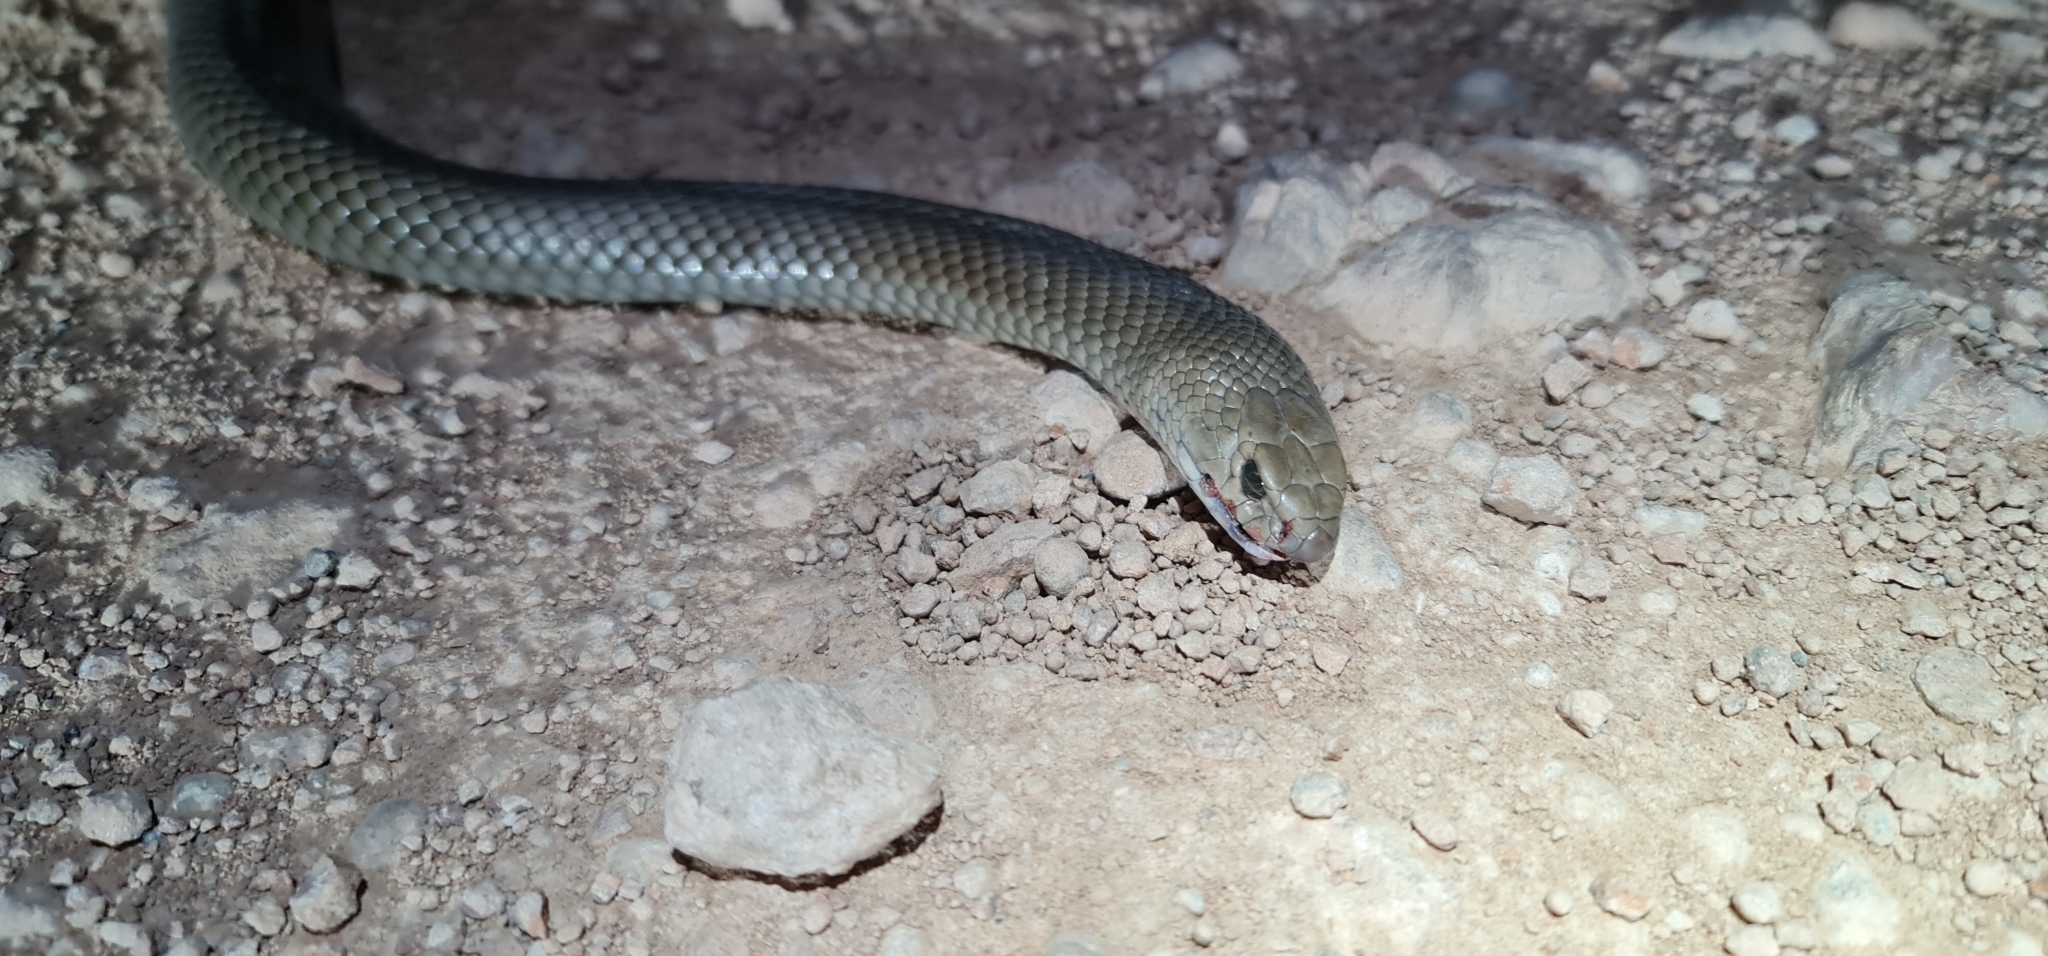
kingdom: Animalia
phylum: Chordata
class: Squamata
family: Elapidae
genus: Pseudonaja
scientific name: Pseudonaja textilis
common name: Eastern brown snake
